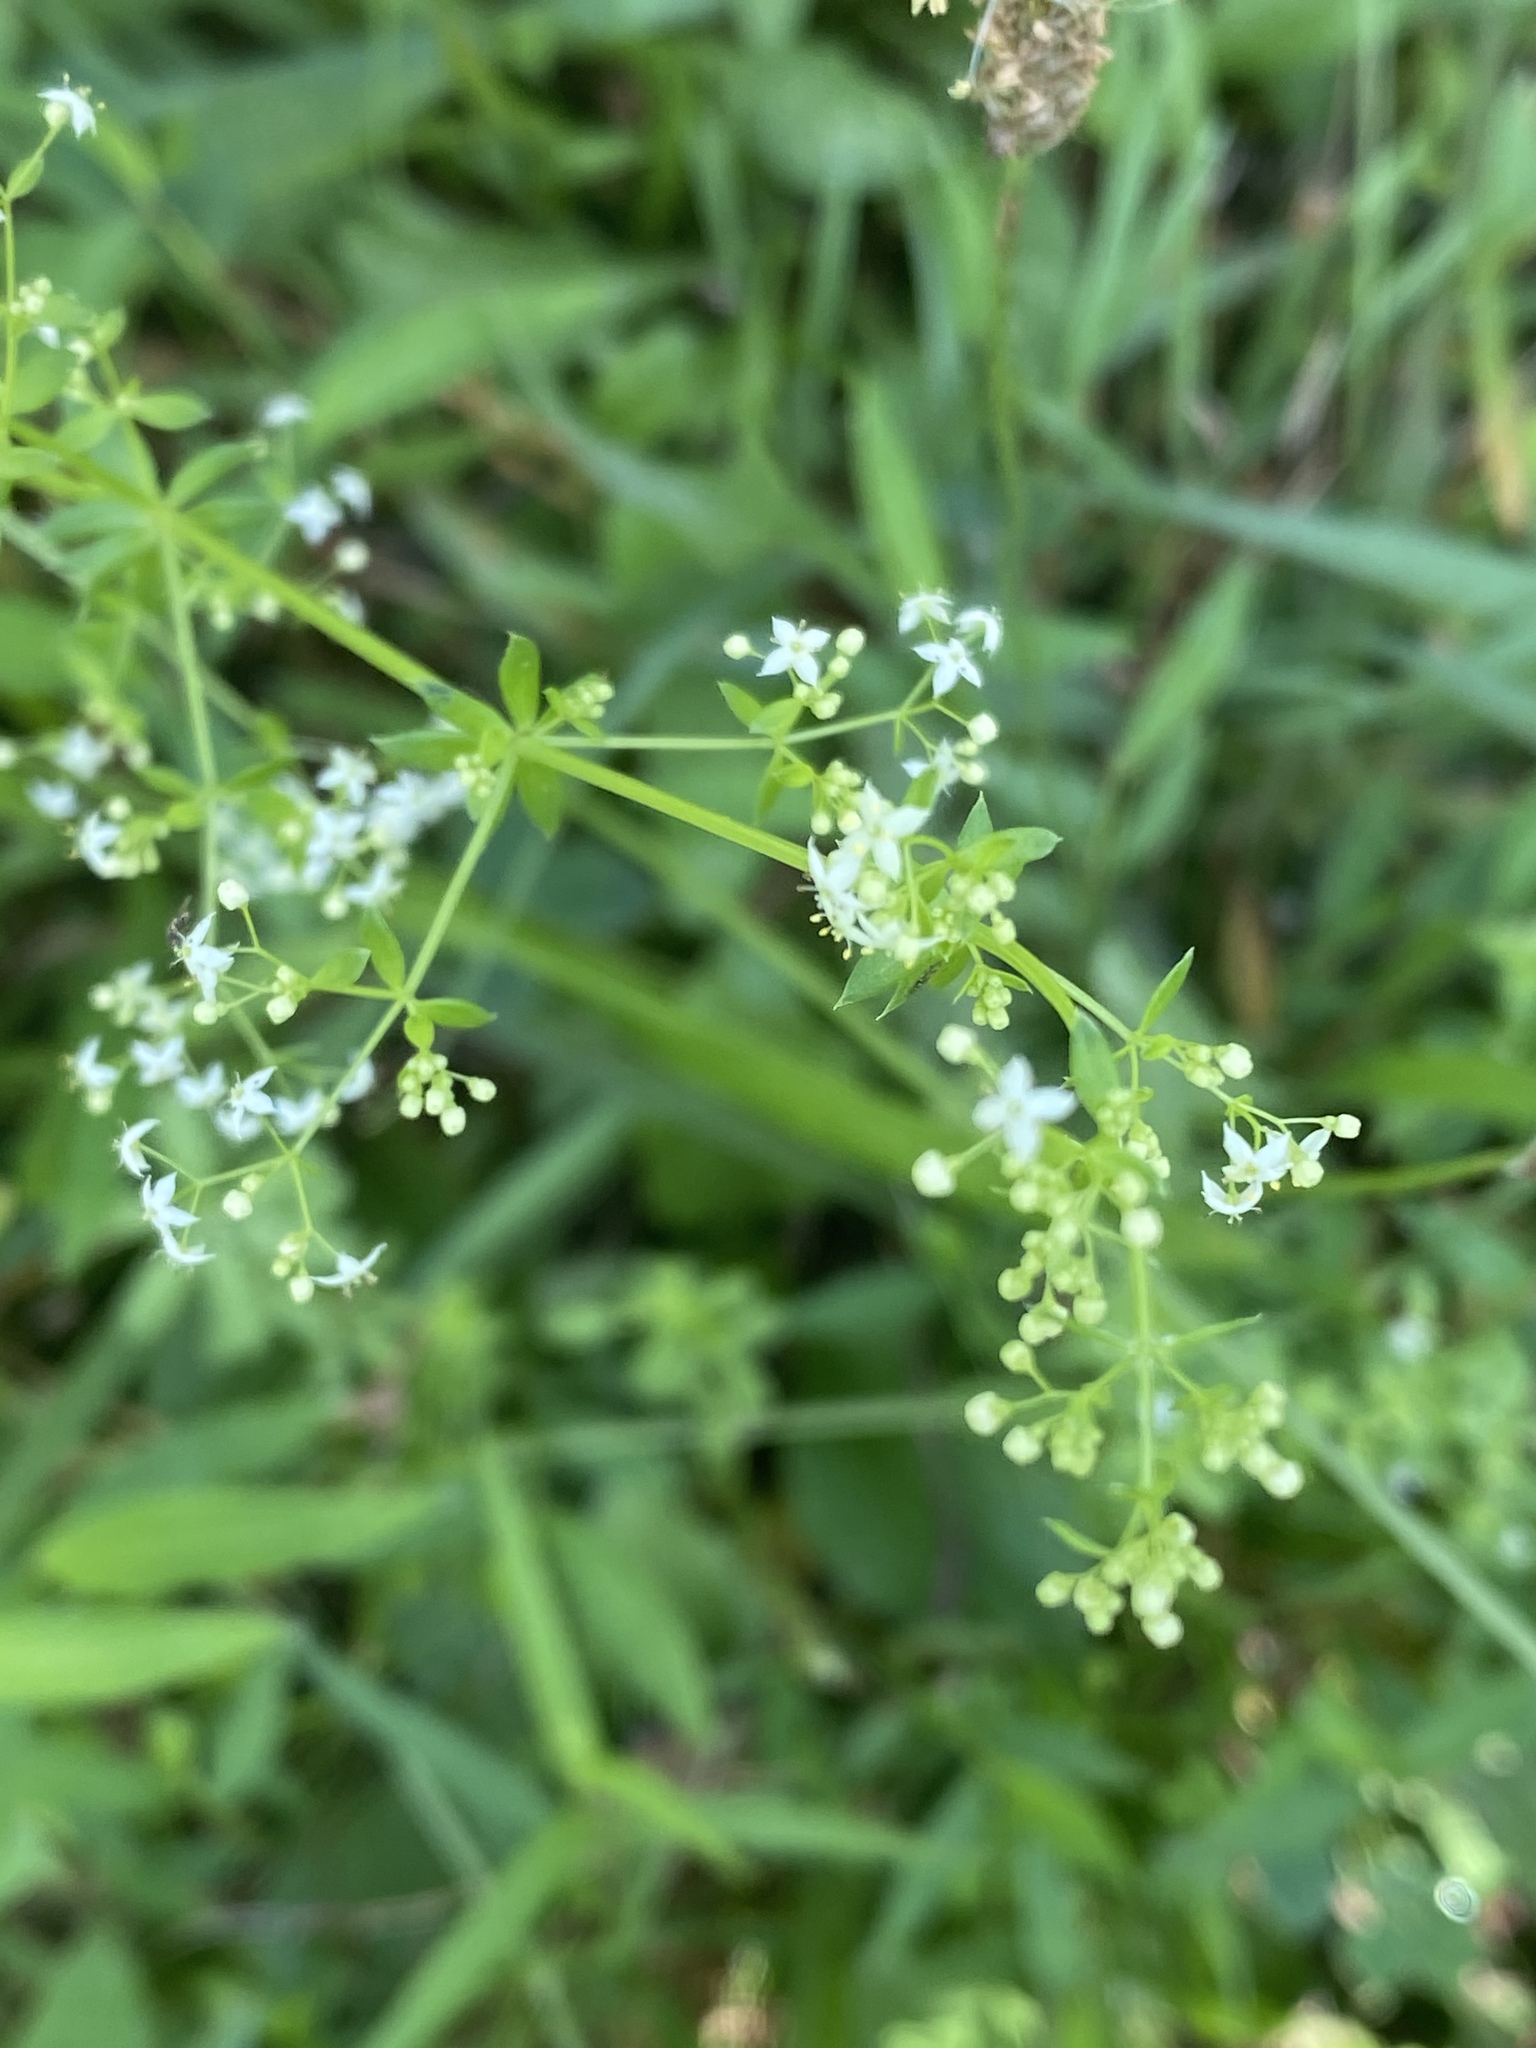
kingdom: Plantae
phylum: Tracheophyta
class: Magnoliopsida
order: Gentianales
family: Rubiaceae
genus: Galium
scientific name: Galium mollugo
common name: Hedge bedstraw
